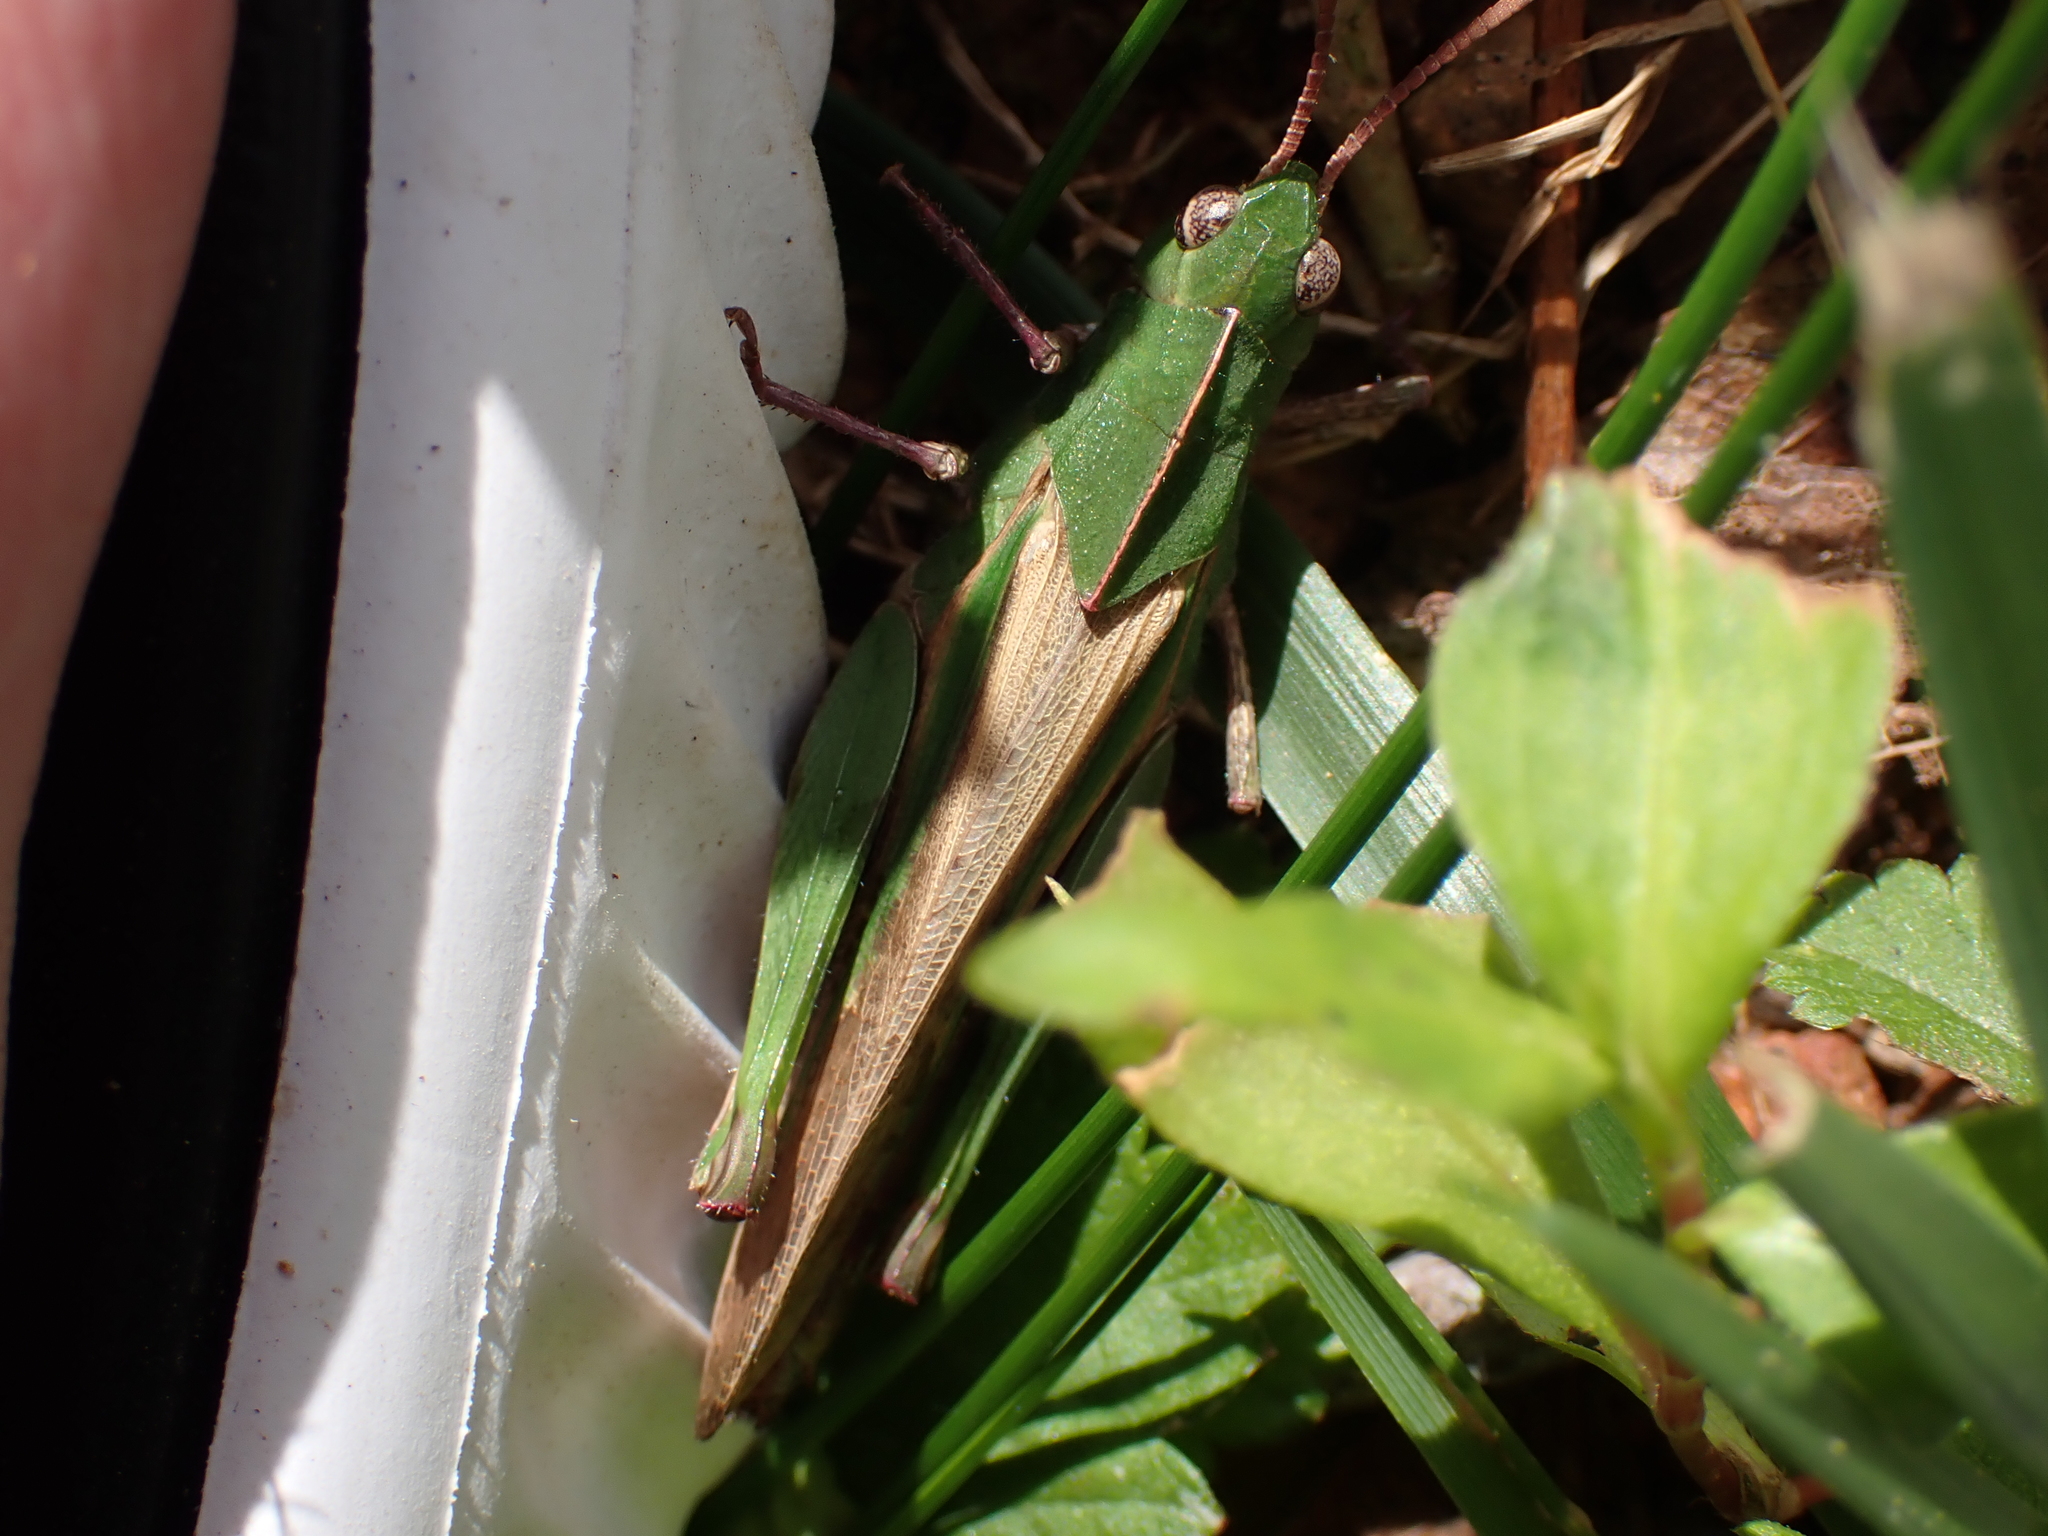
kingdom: Animalia
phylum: Arthropoda
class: Insecta
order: Orthoptera
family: Acrididae
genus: Chortophaga
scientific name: Chortophaga viridifasciata
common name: Green-striped grasshopper
